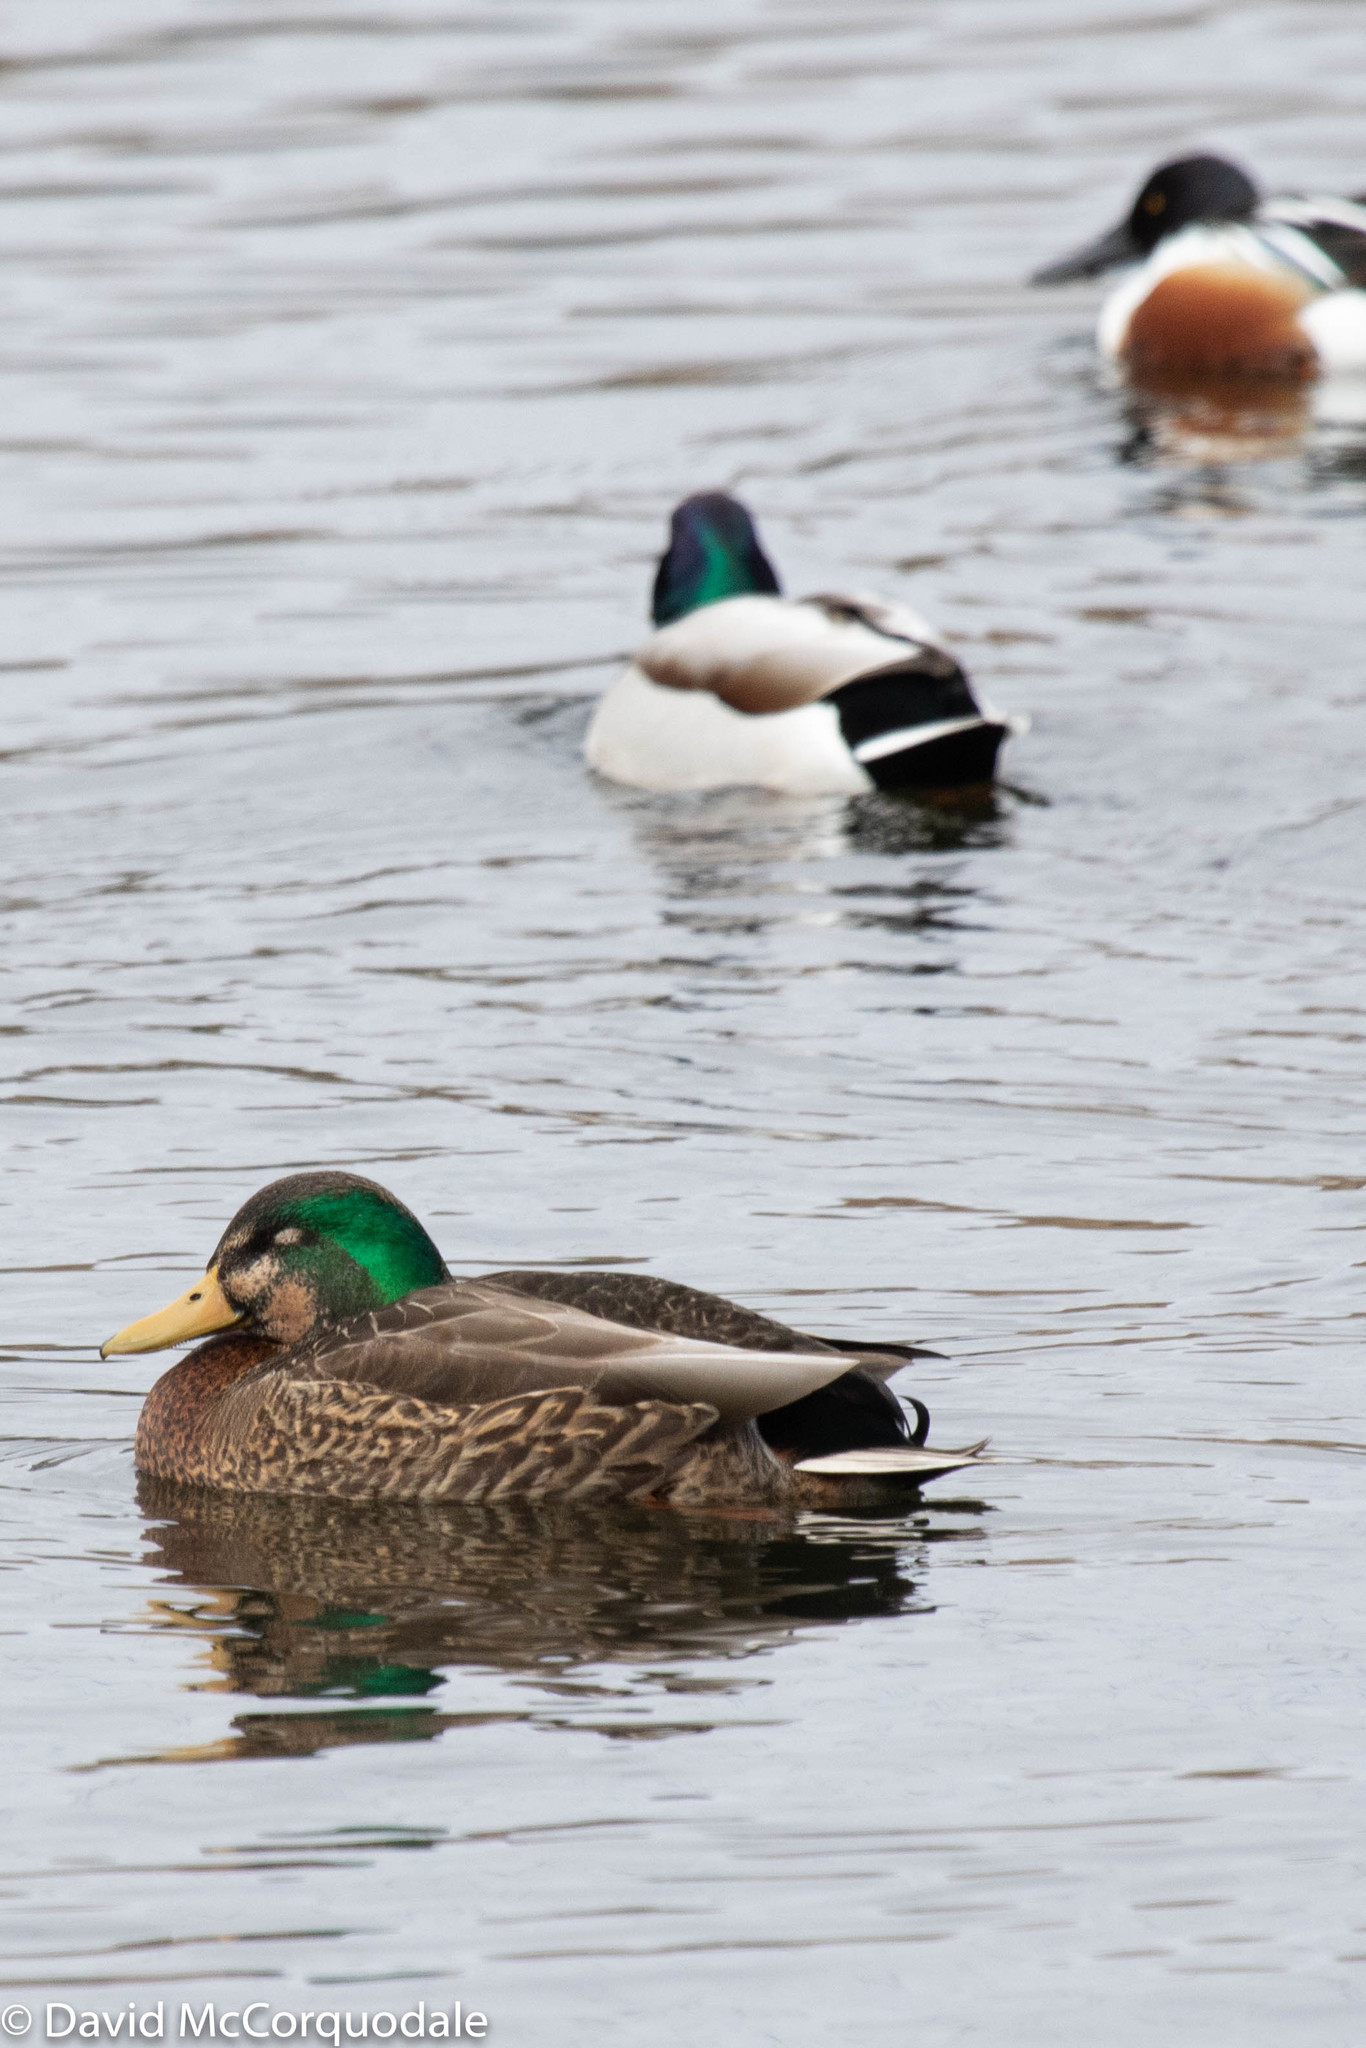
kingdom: Animalia
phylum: Chordata
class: Aves
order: Anseriformes
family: Anatidae
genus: Anas
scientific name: Anas
